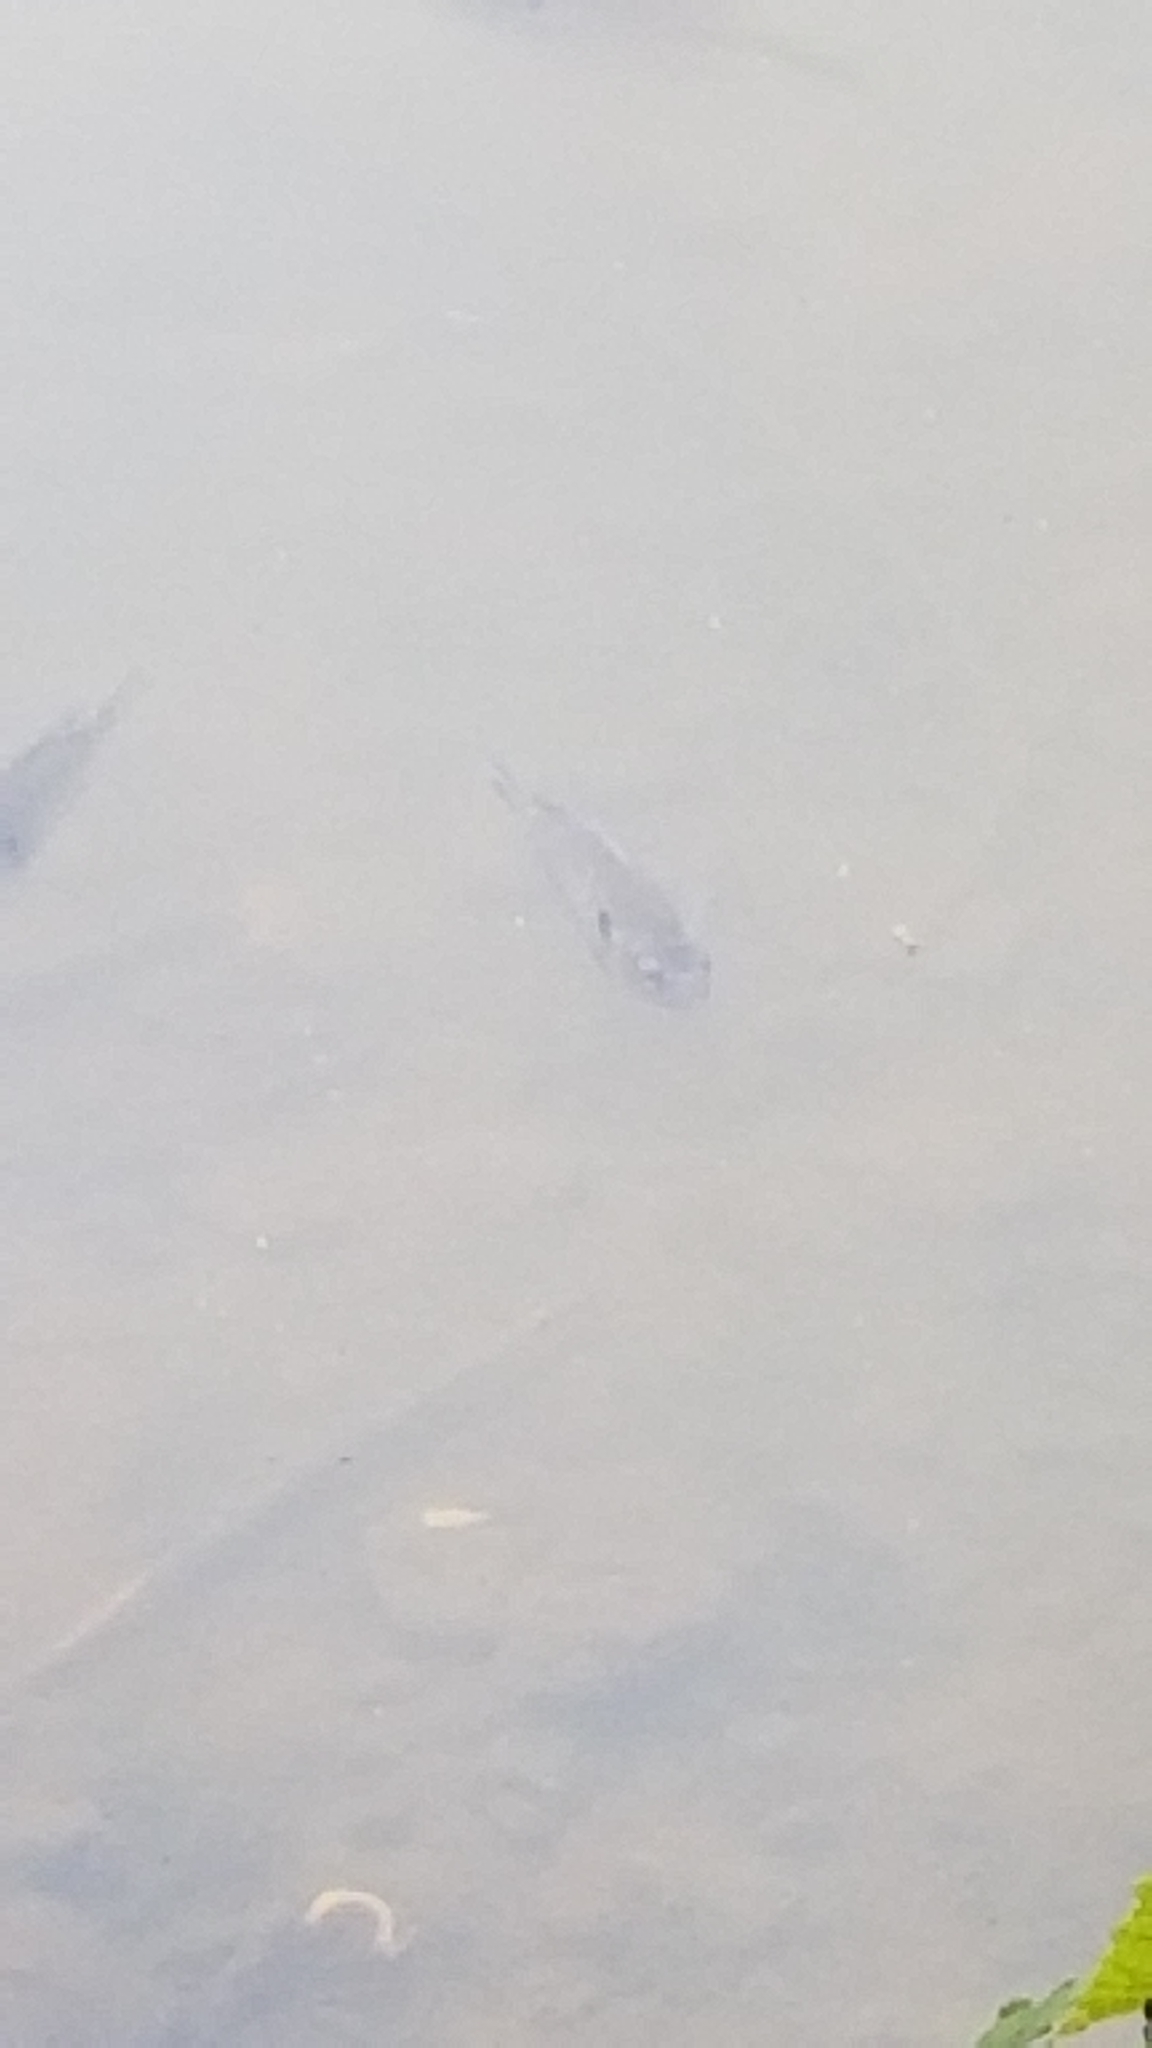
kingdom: Animalia
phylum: Chordata
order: Perciformes
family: Centrarchidae
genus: Lepomis
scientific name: Lepomis macrochirus
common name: Bluegill
